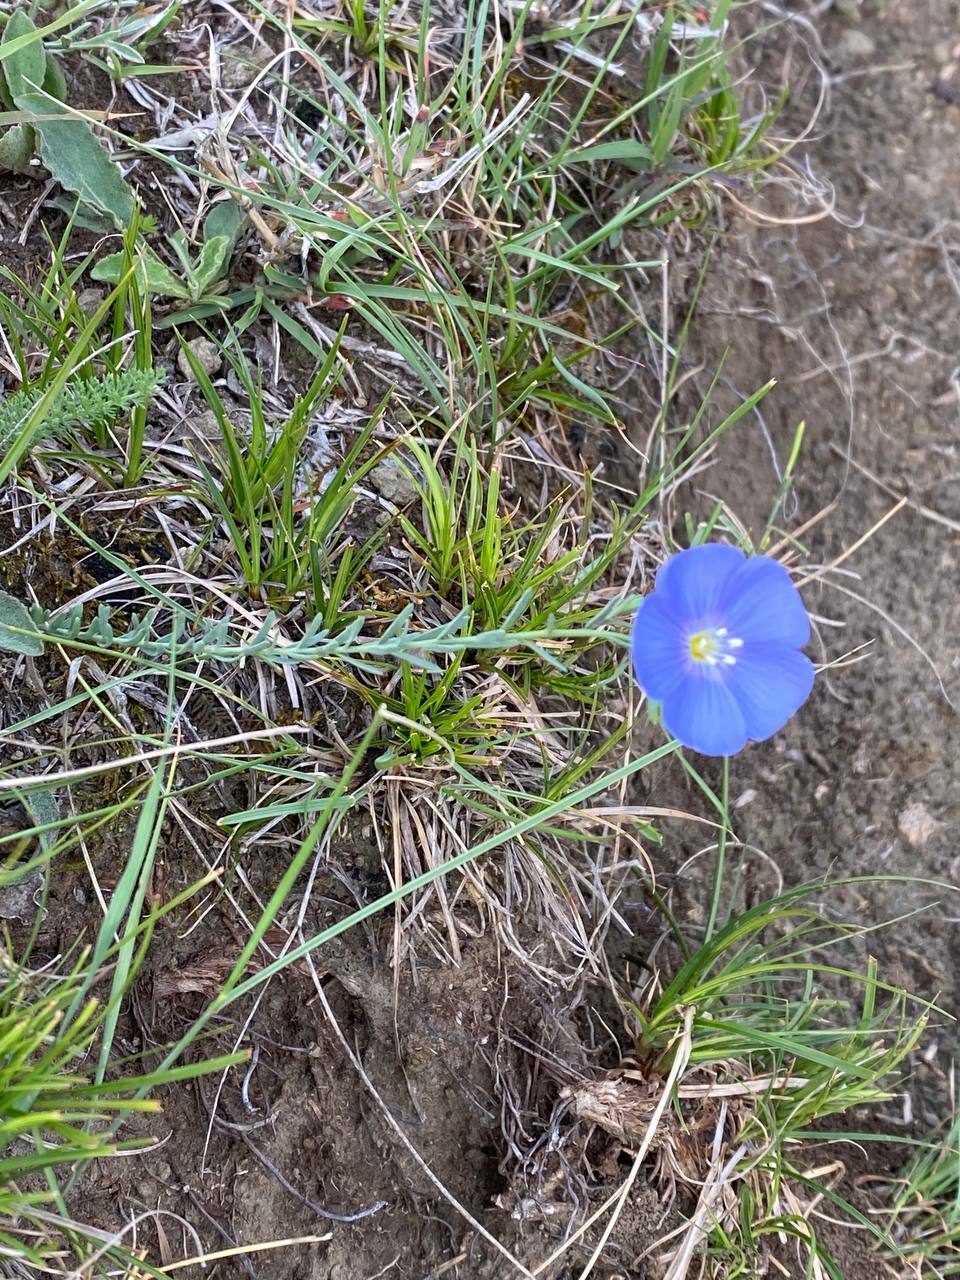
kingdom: Plantae
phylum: Tracheophyta
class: Magnoliopsida
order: Malpighiales
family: Linaceae
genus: Linum
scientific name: Linum austriacum
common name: Austrian flax
